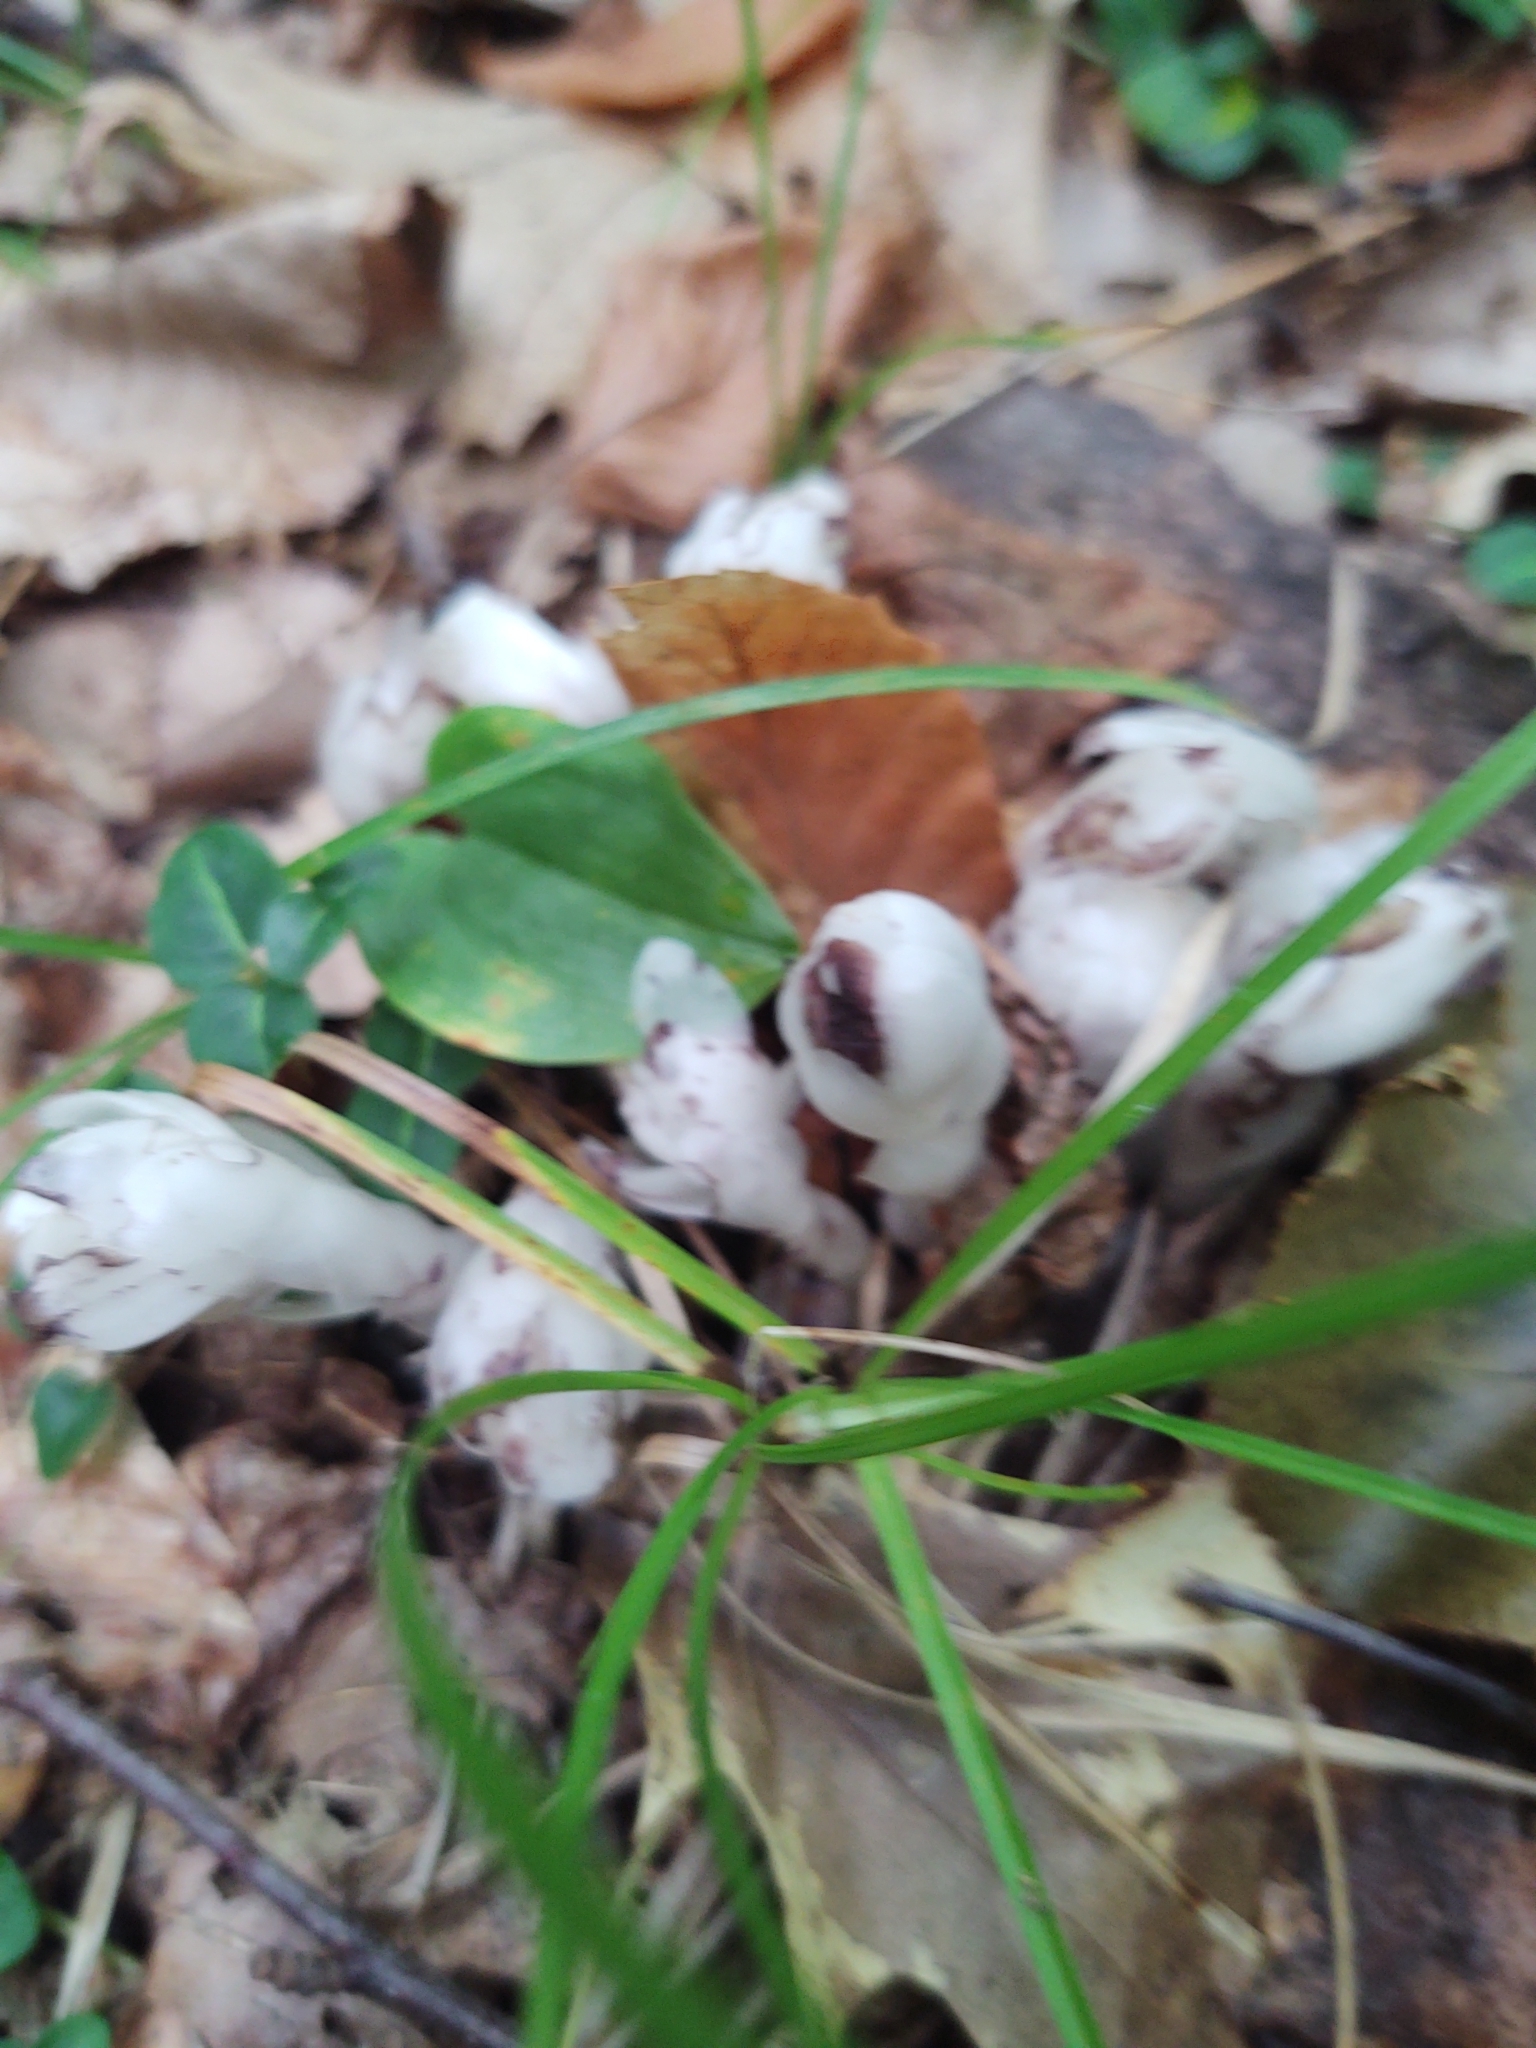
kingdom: Plantae
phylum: Tracheophyta
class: Magnoliopsida
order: Ericales
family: Ericaceae
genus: Monotropa
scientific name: Monotropa uniflora
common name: Convulsion root
